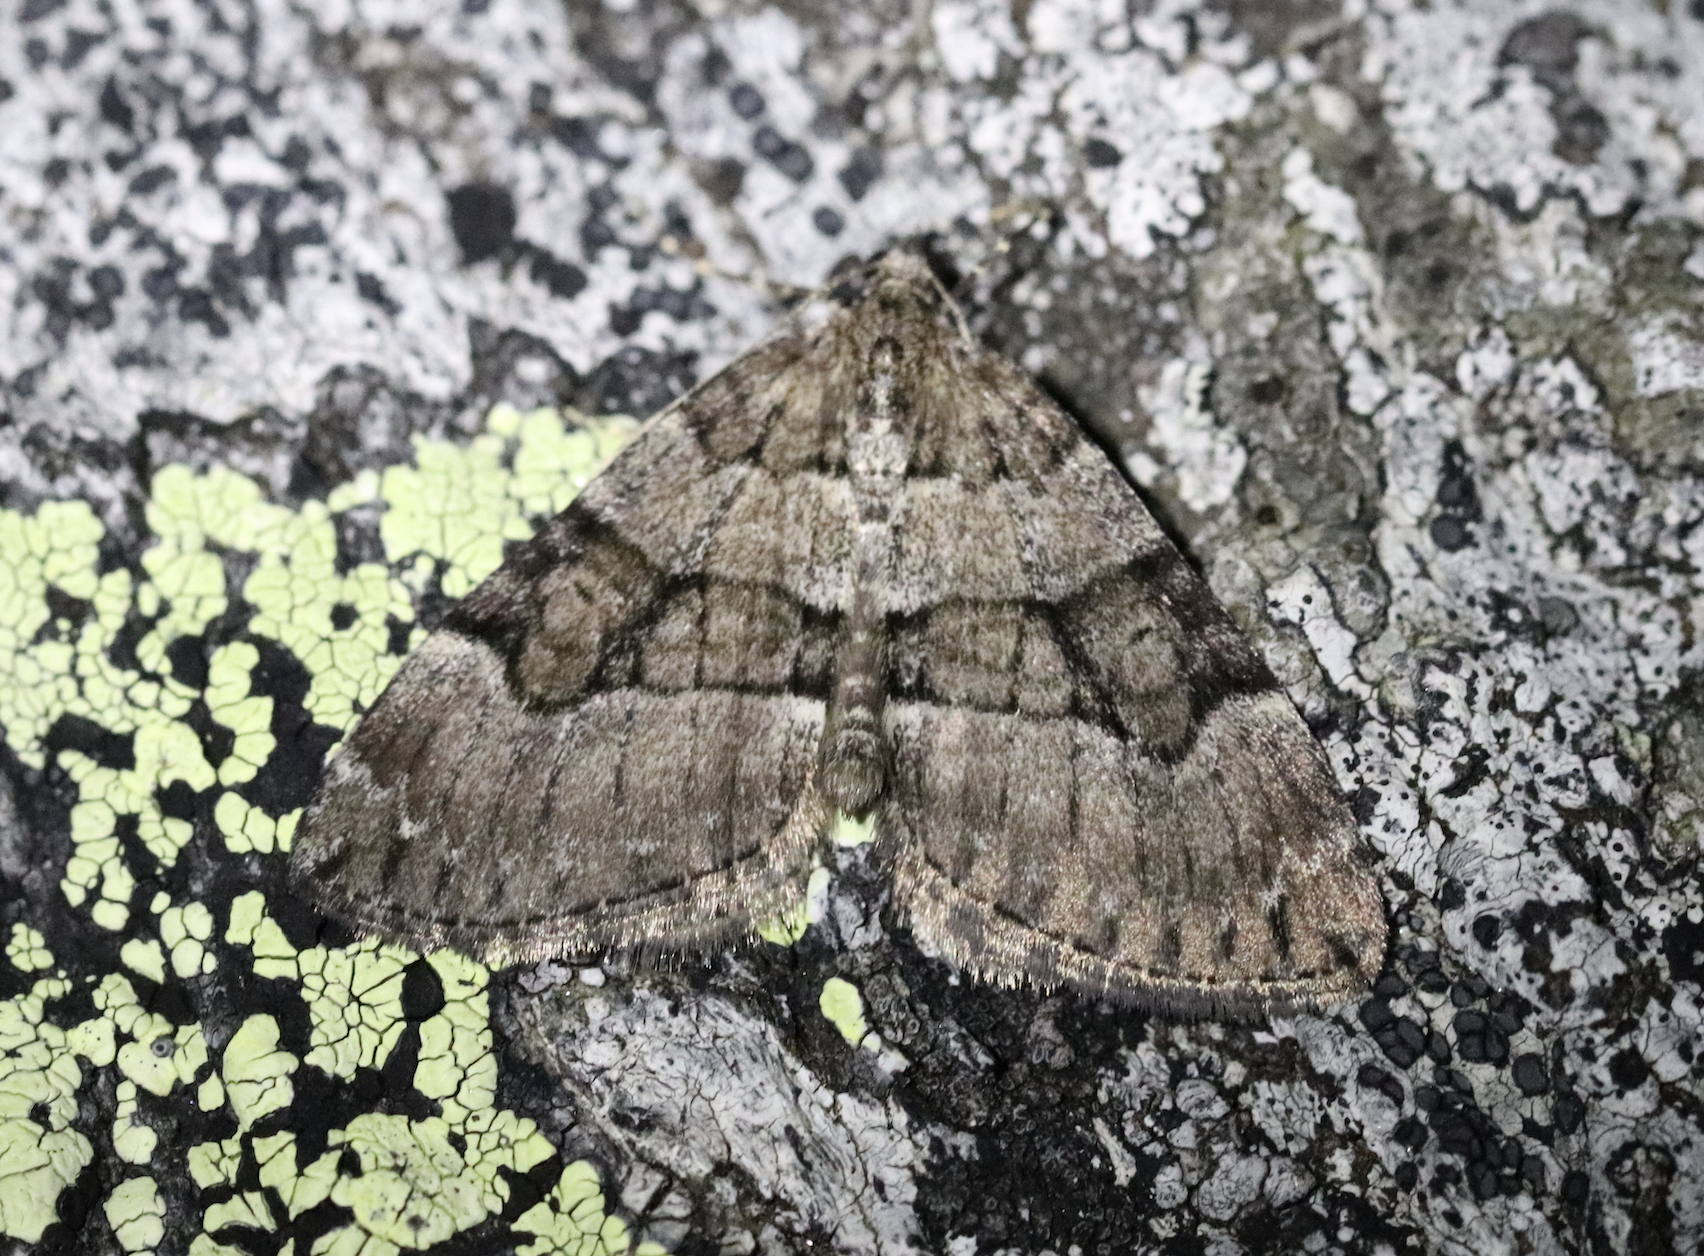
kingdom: Animalia
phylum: Arthropoda
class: Insecta
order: Lepidoptera
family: Geometridae
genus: Thera
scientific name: Thera cognata
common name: Chestnut-coloured carpet
